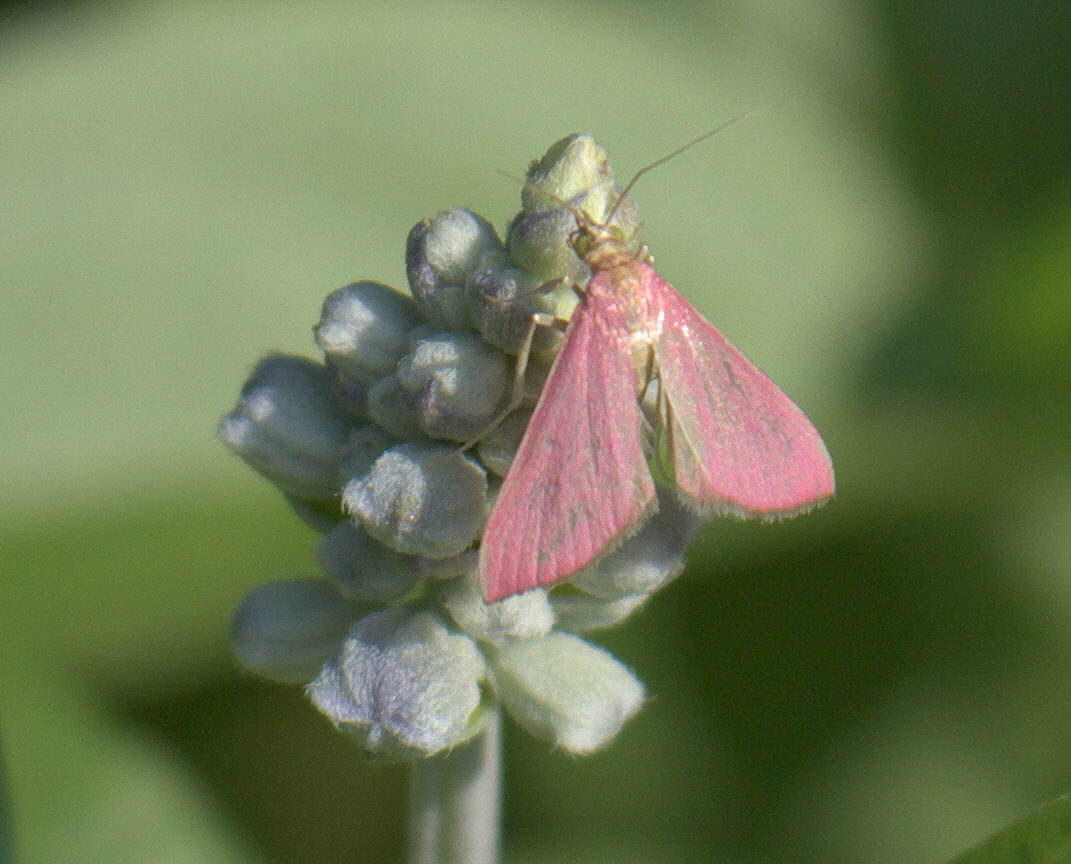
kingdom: Animalia
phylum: Arthropoda
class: Insecta
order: Lepidoptera
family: Crambidae
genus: Pyrausta
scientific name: Pyrausta inornatalis
